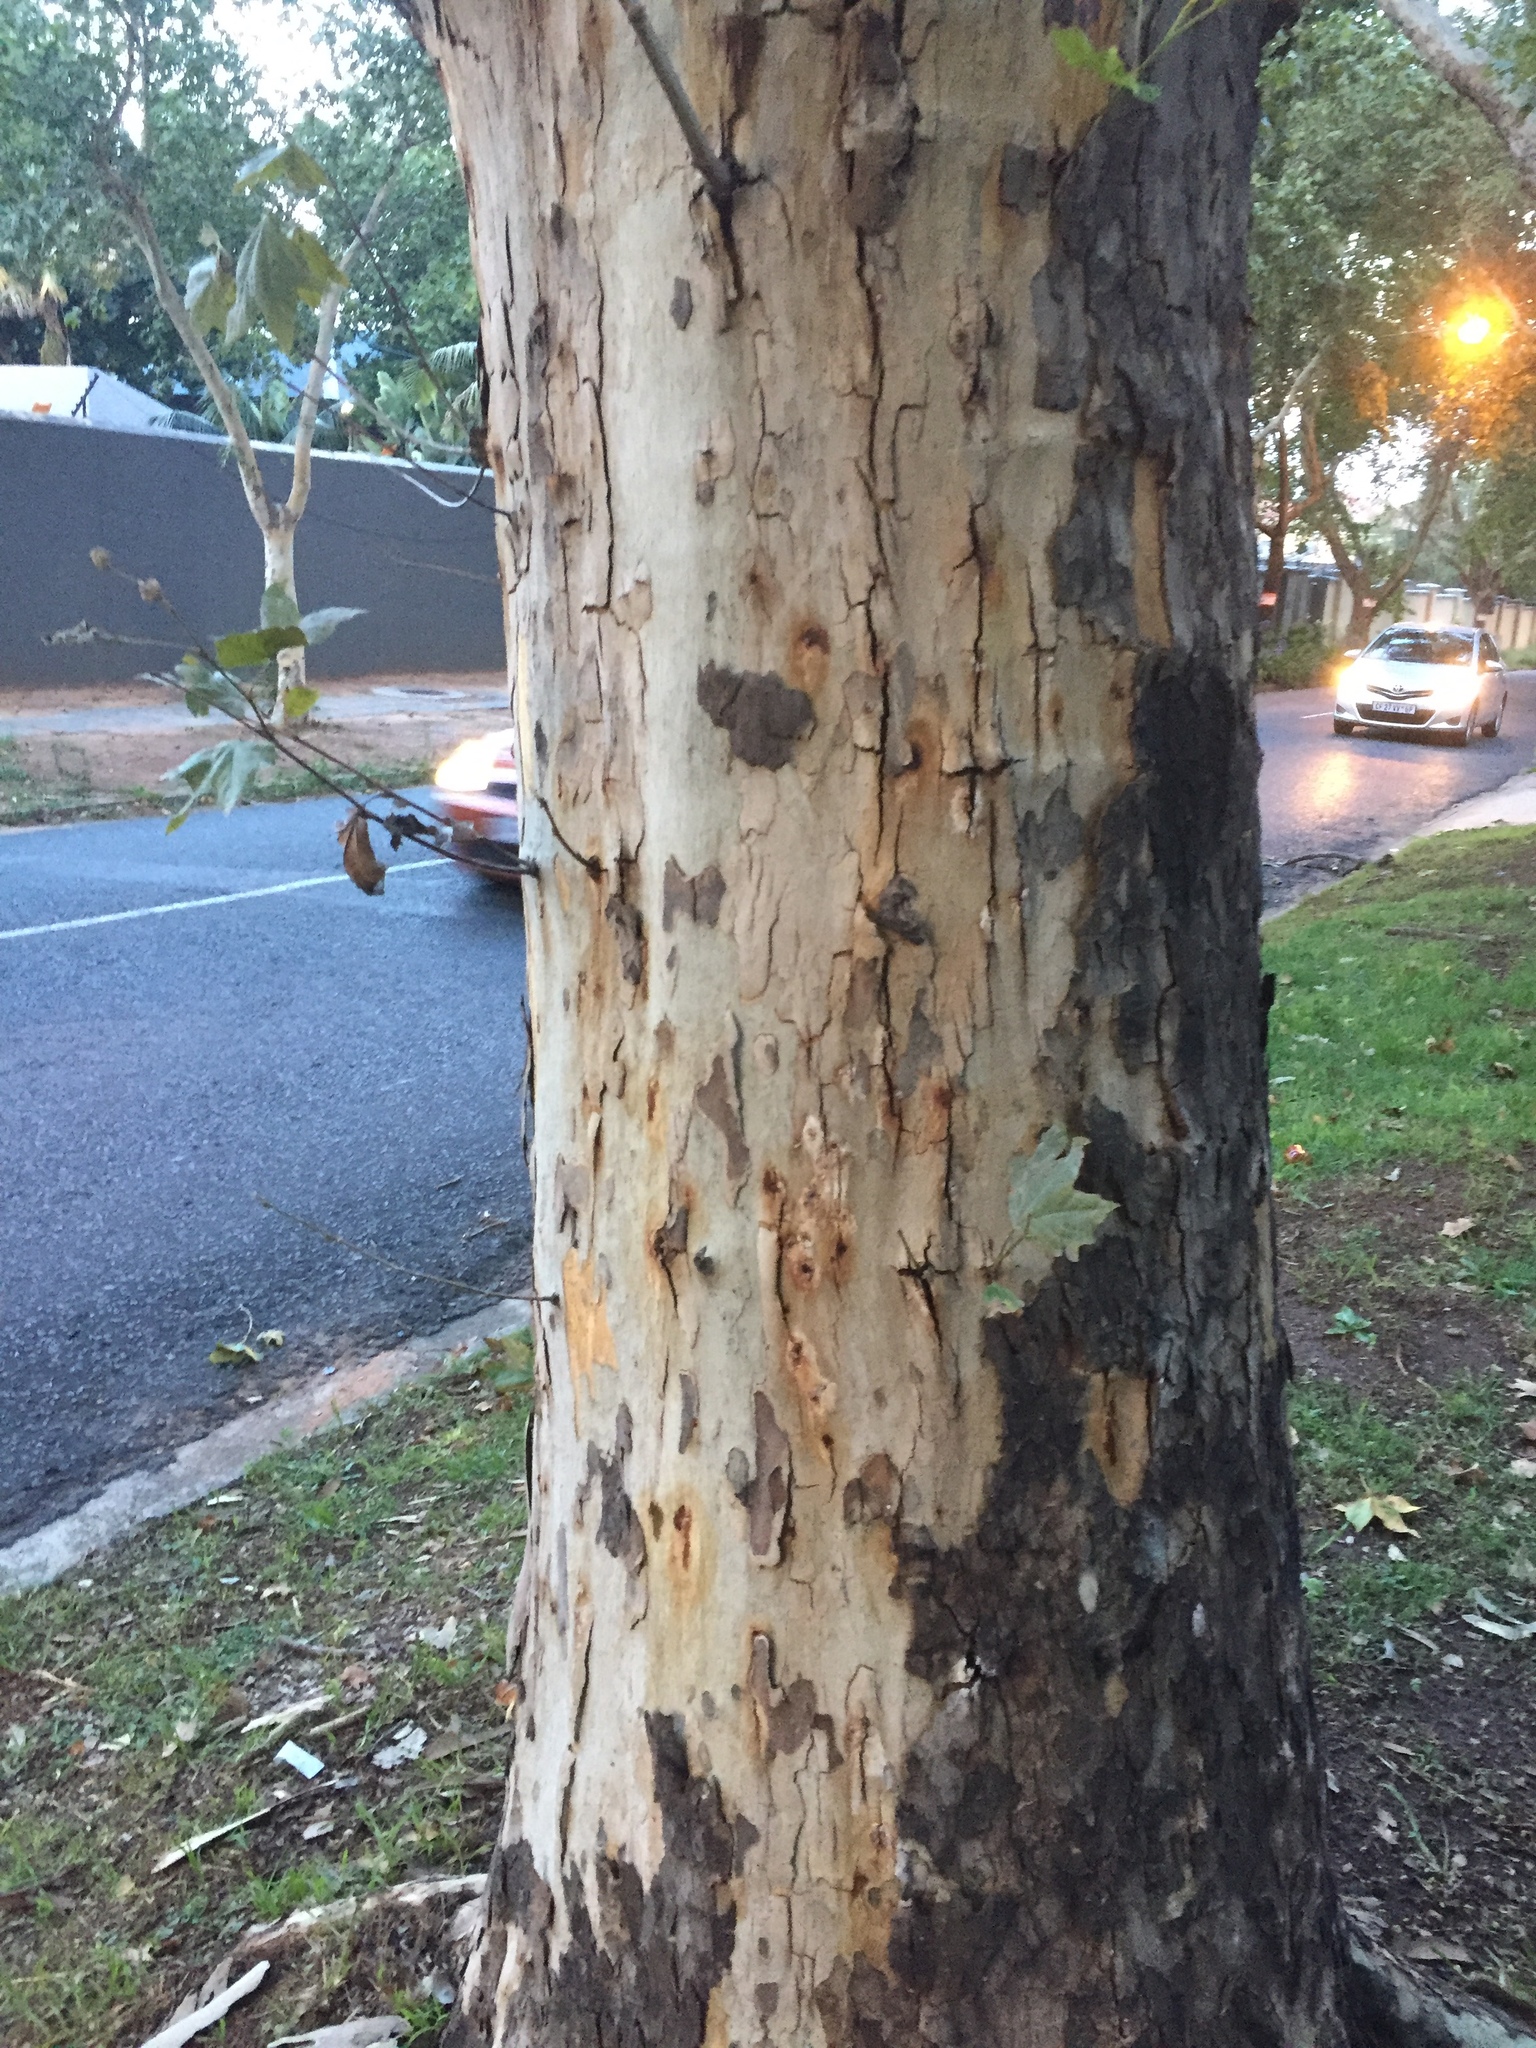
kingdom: Animalia
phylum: Arthropoda
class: Insecta
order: Coleoptera
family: Curculionidae
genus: Euwallacea
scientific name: Euwallacea fornicatus
